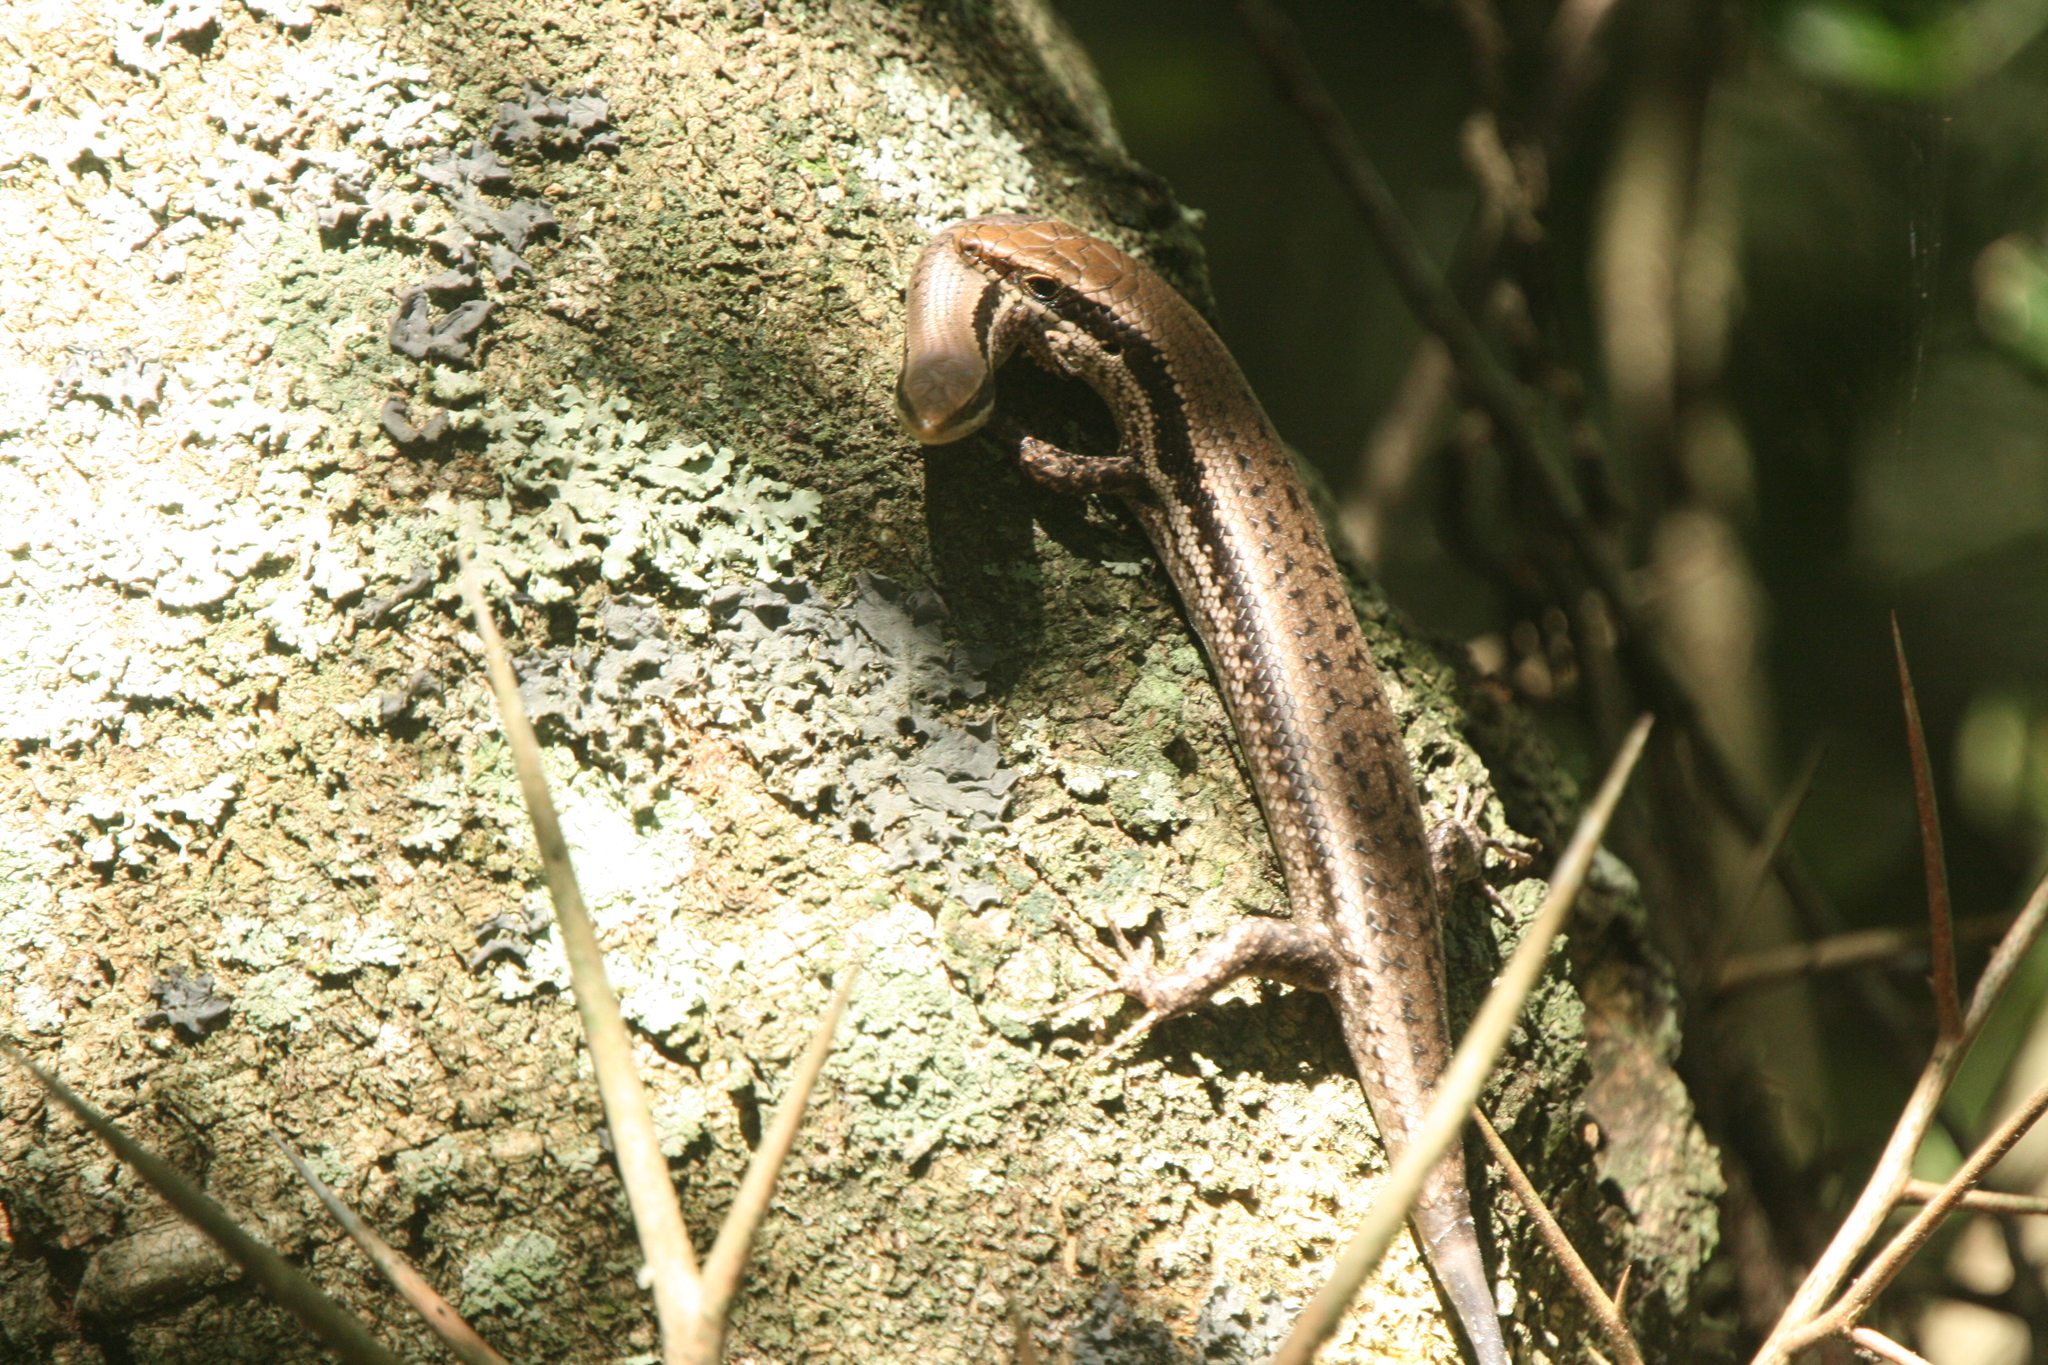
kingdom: Animalia
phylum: Chordata
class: Squamata
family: Scincidae
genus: Notomabuya
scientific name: Notomabuya frenata
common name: Cope's mabuya
